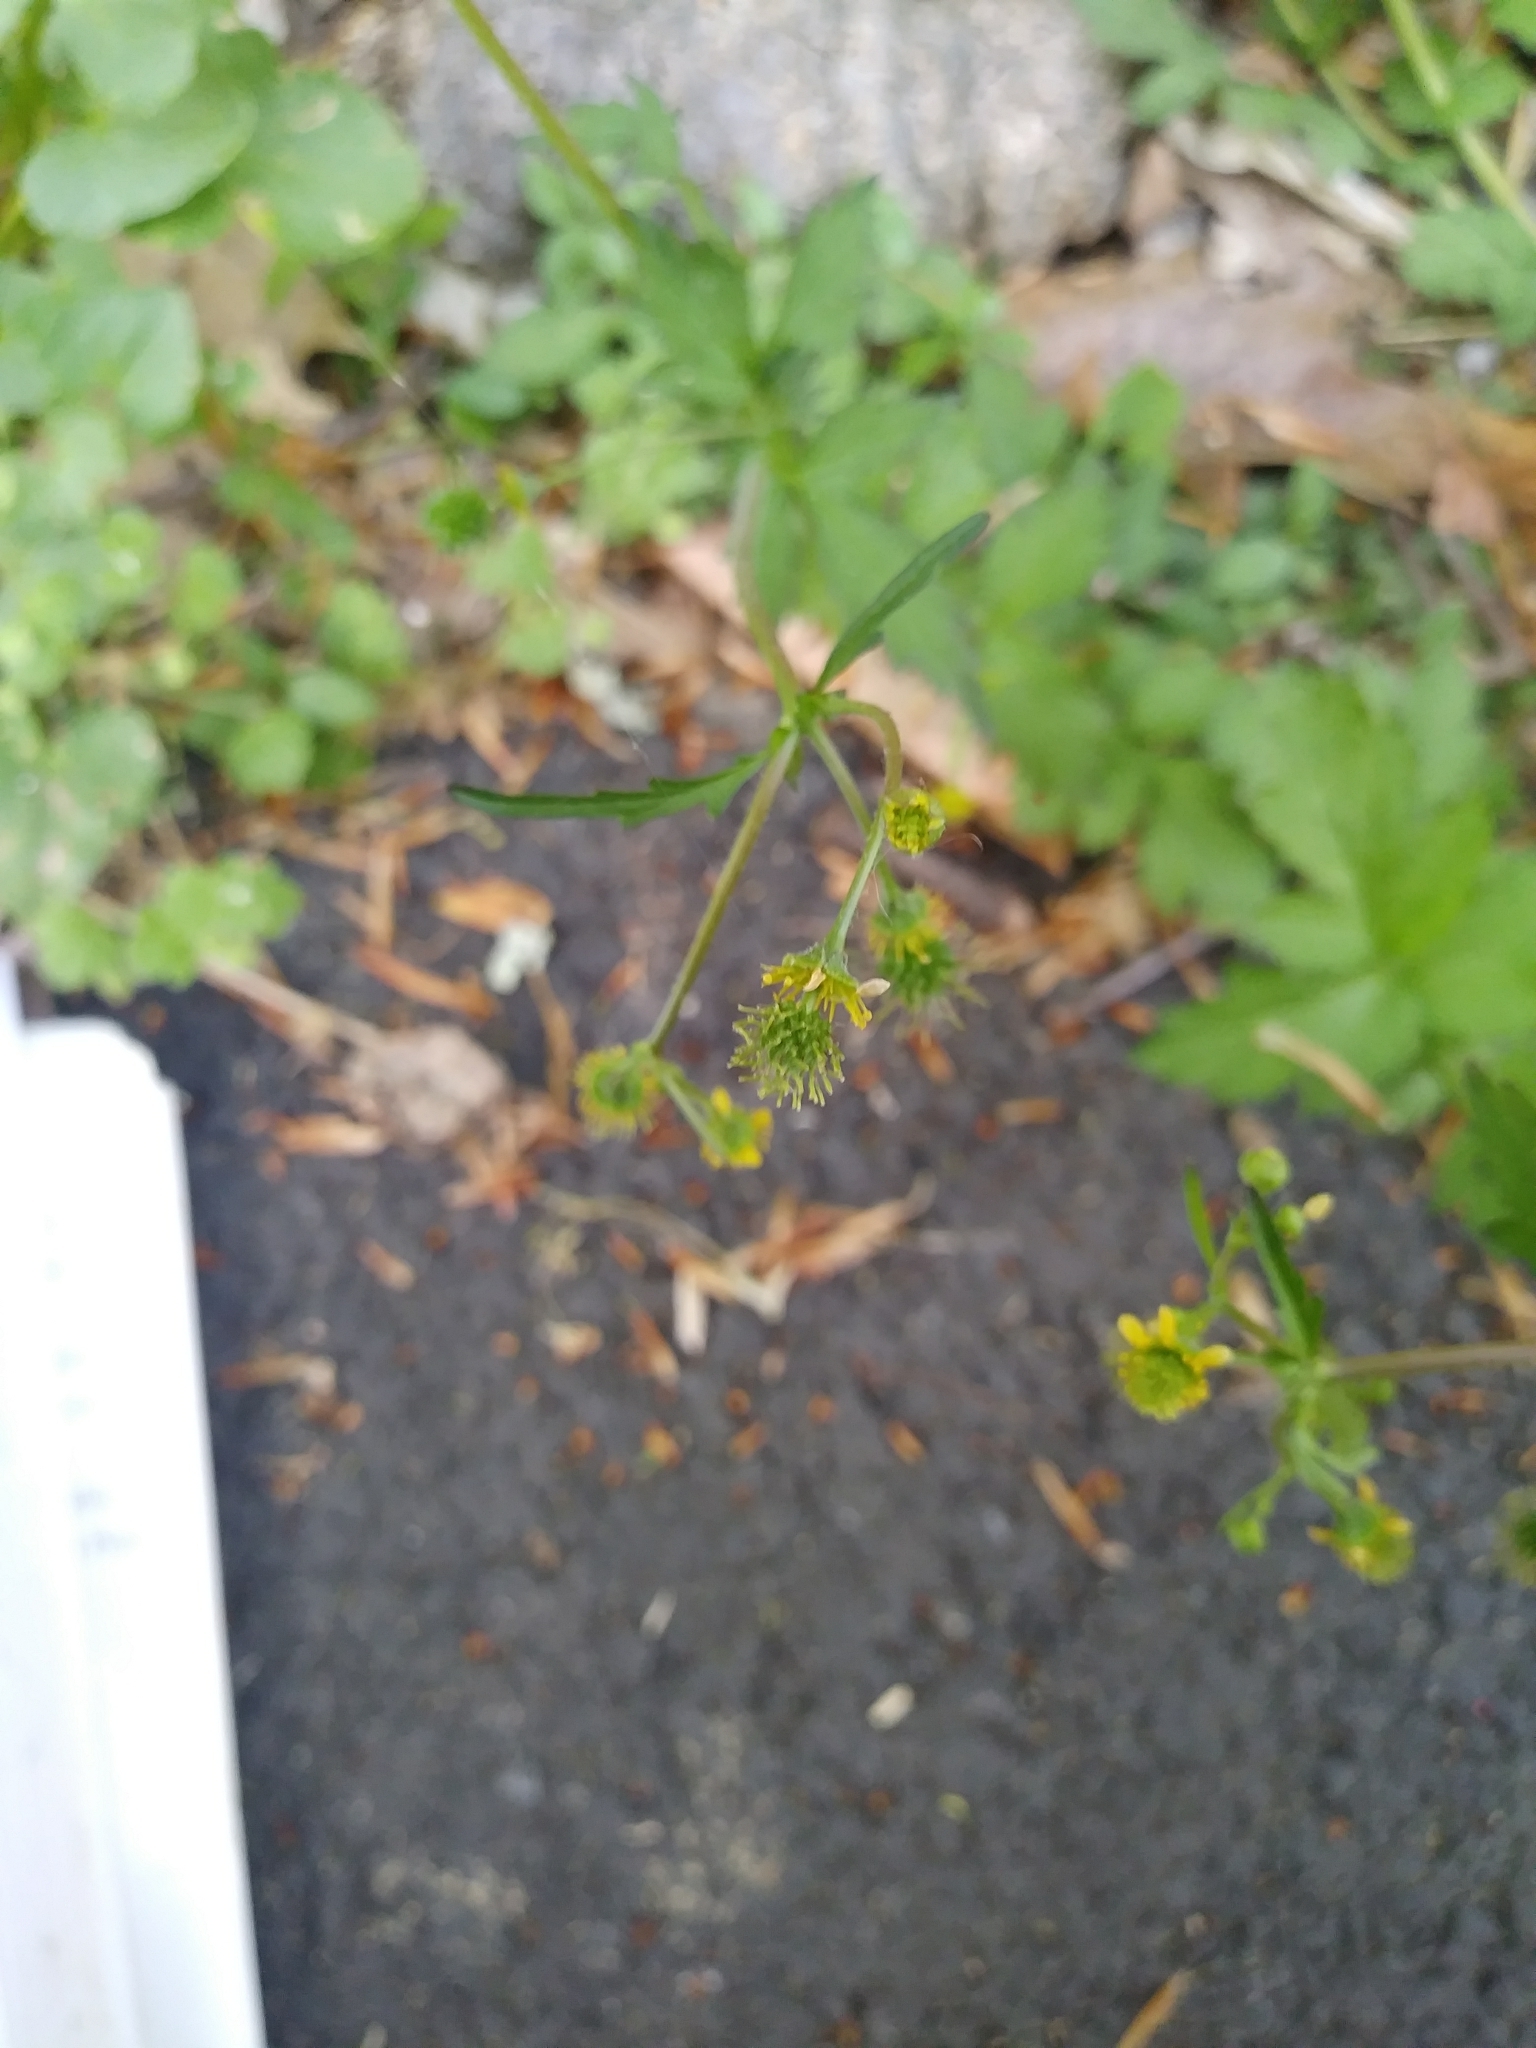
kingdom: Plantae
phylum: Tracheophyta
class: Magnoliopsida
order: Rosales
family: Rosaceae
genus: Geum
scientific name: Geum vernum
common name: Spring avens
